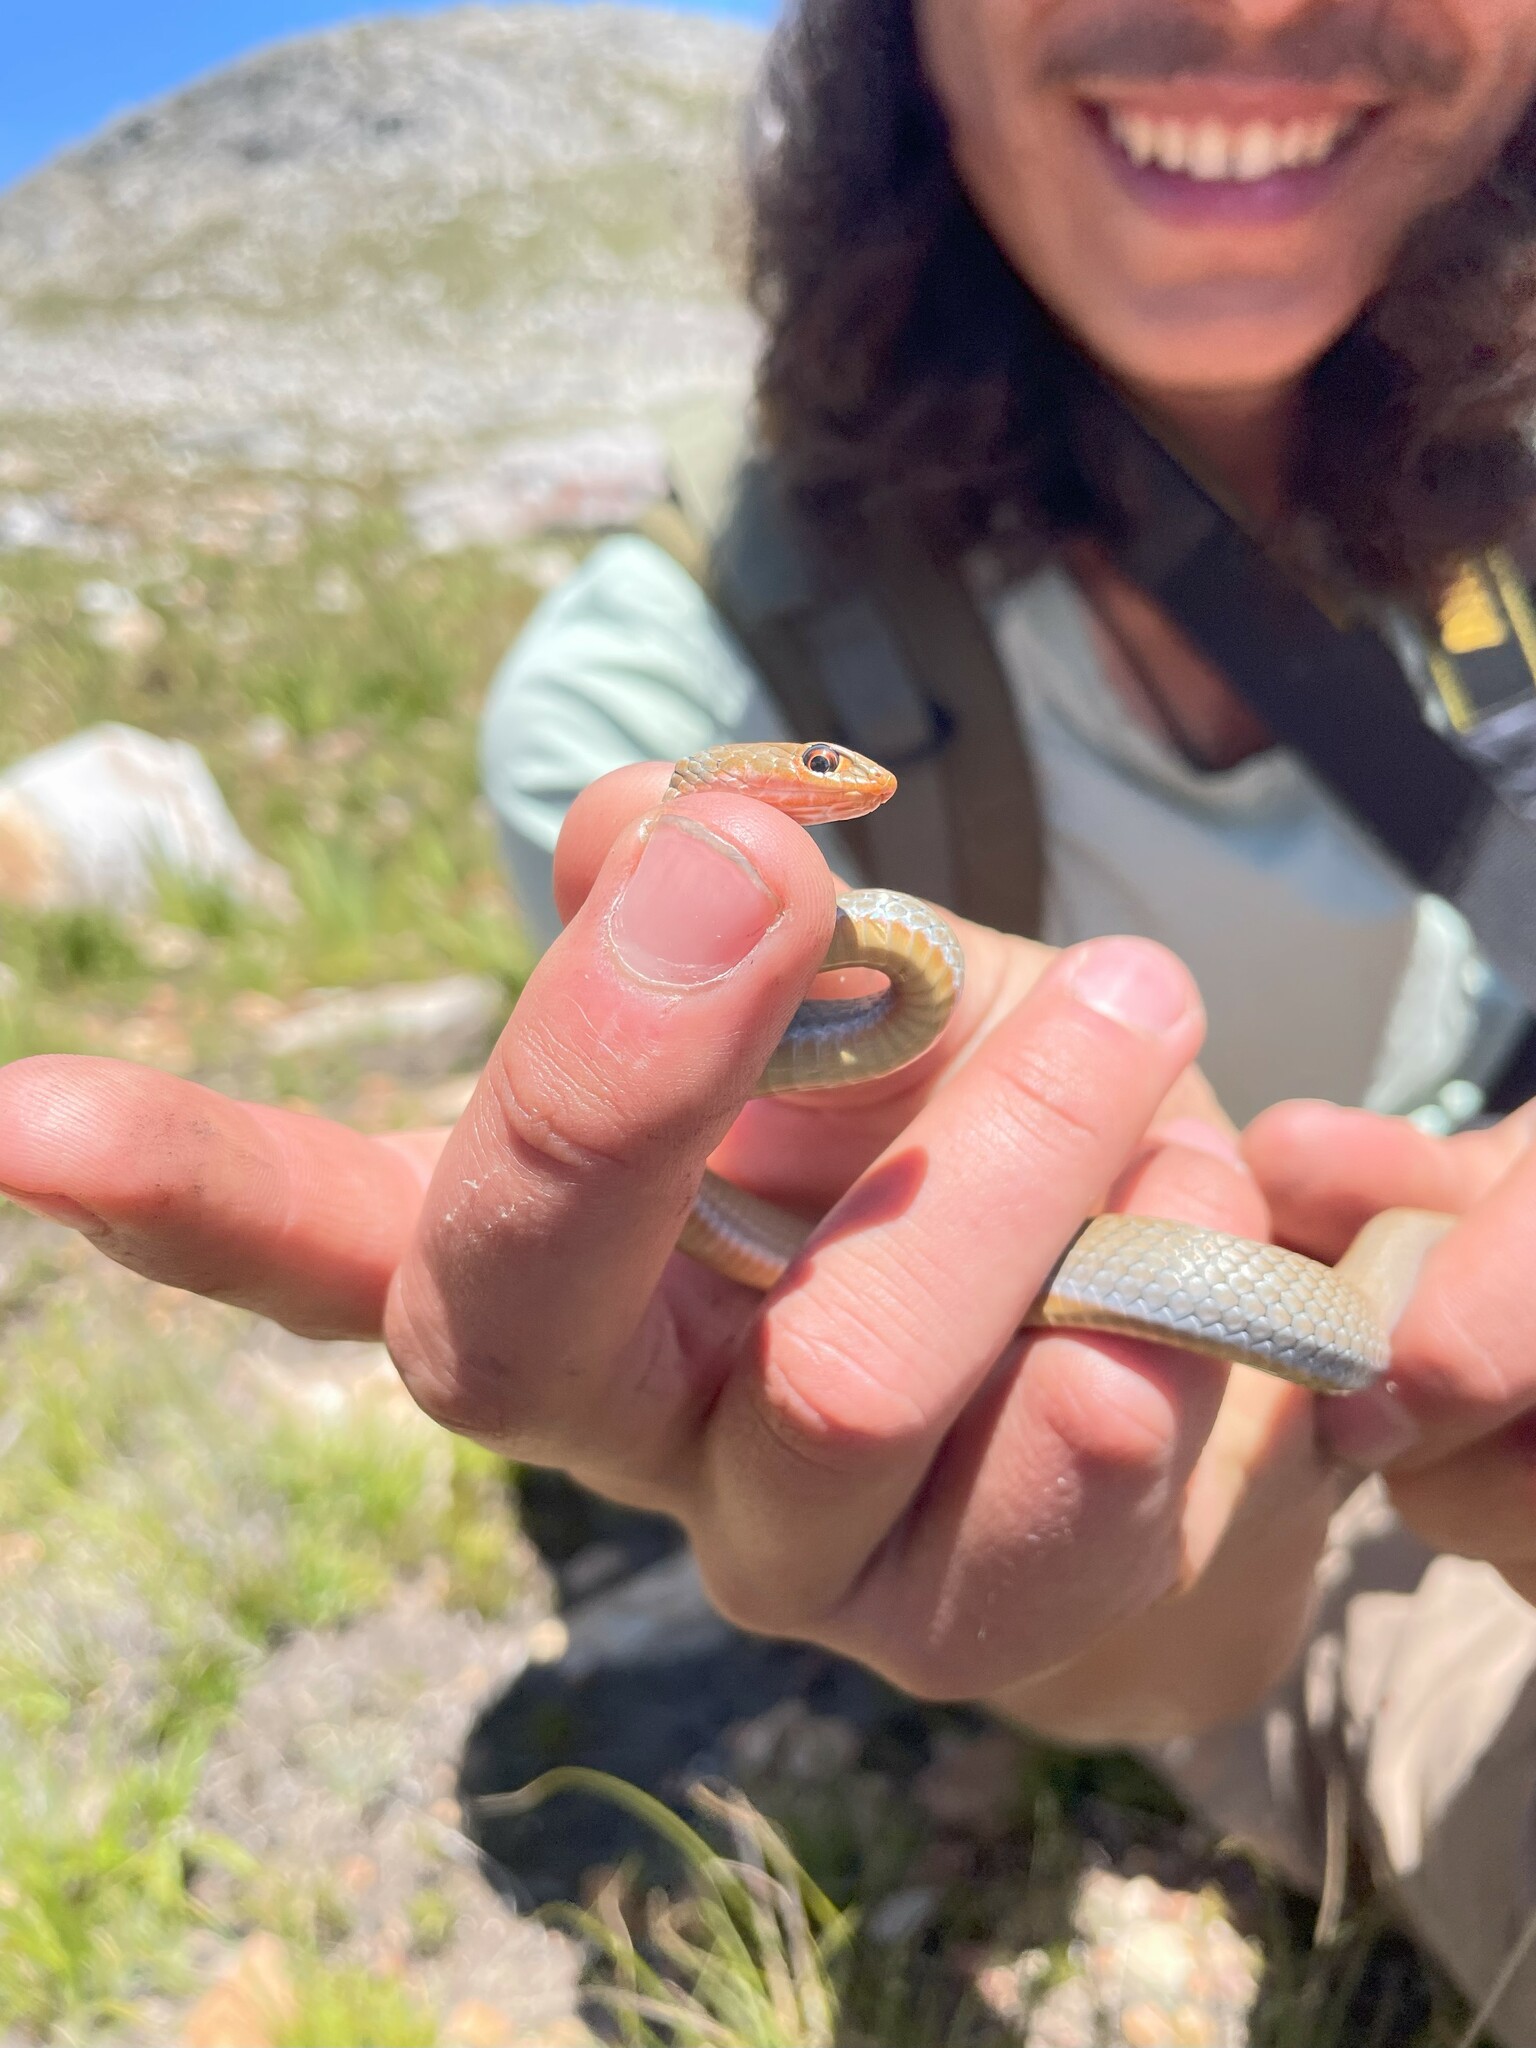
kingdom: Animalia
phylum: Chordata
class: Squamata
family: Psammophiidae
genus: Psammophis
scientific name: Psammophis crucifer
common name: Cross-marked grass snake
